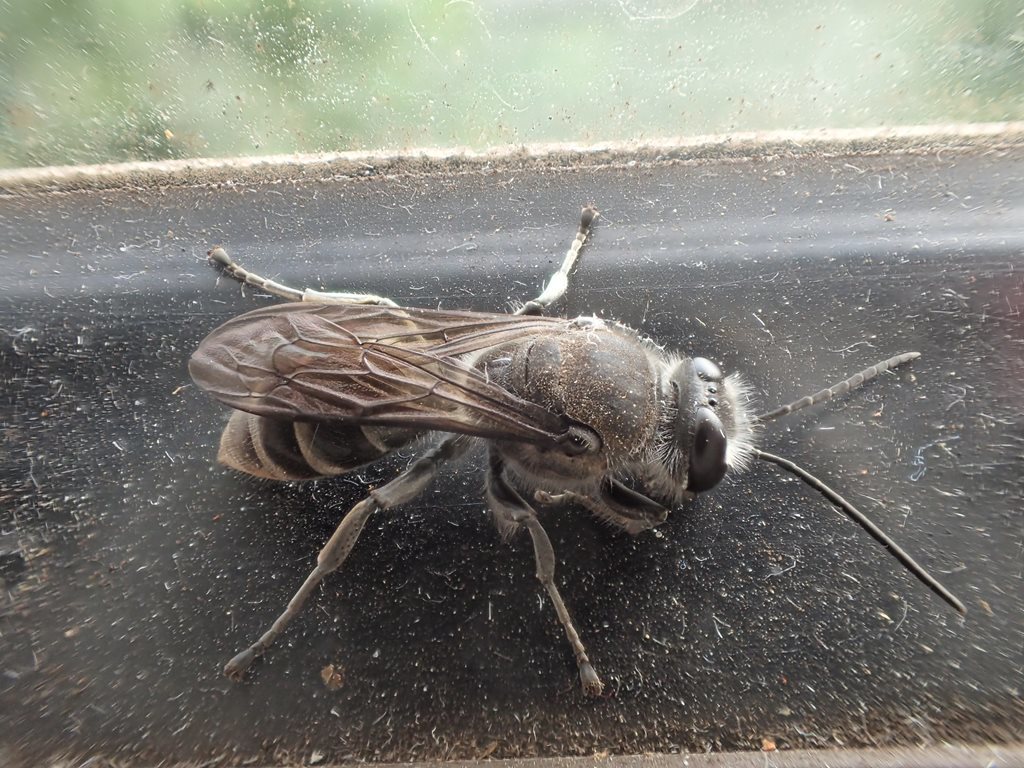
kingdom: Animalia
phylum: Arthropoda
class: Insecta
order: Hymenoptera
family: Crabronidae
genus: Pison
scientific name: Pison spinolae
